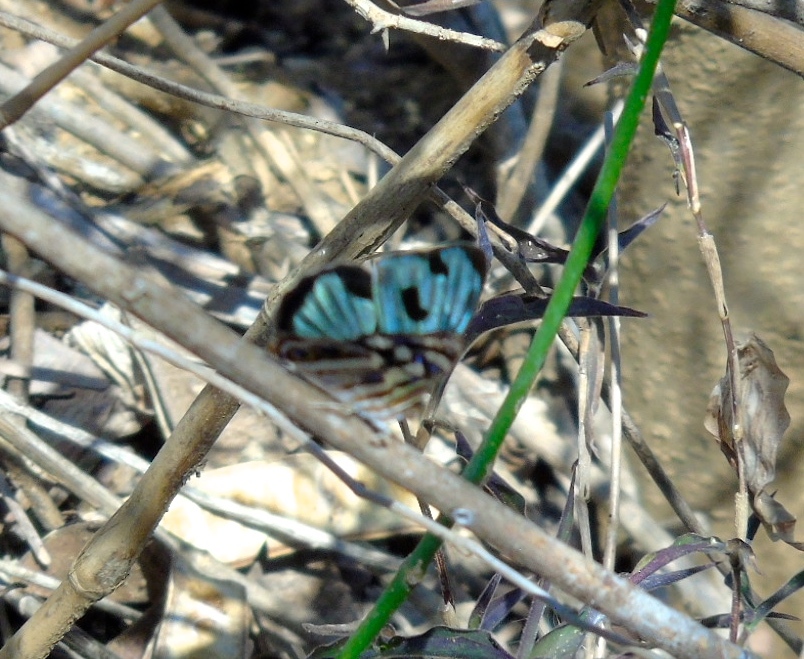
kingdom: Animalia
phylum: Arthropoda
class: Insecta
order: Lepidoptera
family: Nymphalidae
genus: Dynamine
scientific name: Dynamine mylitta
